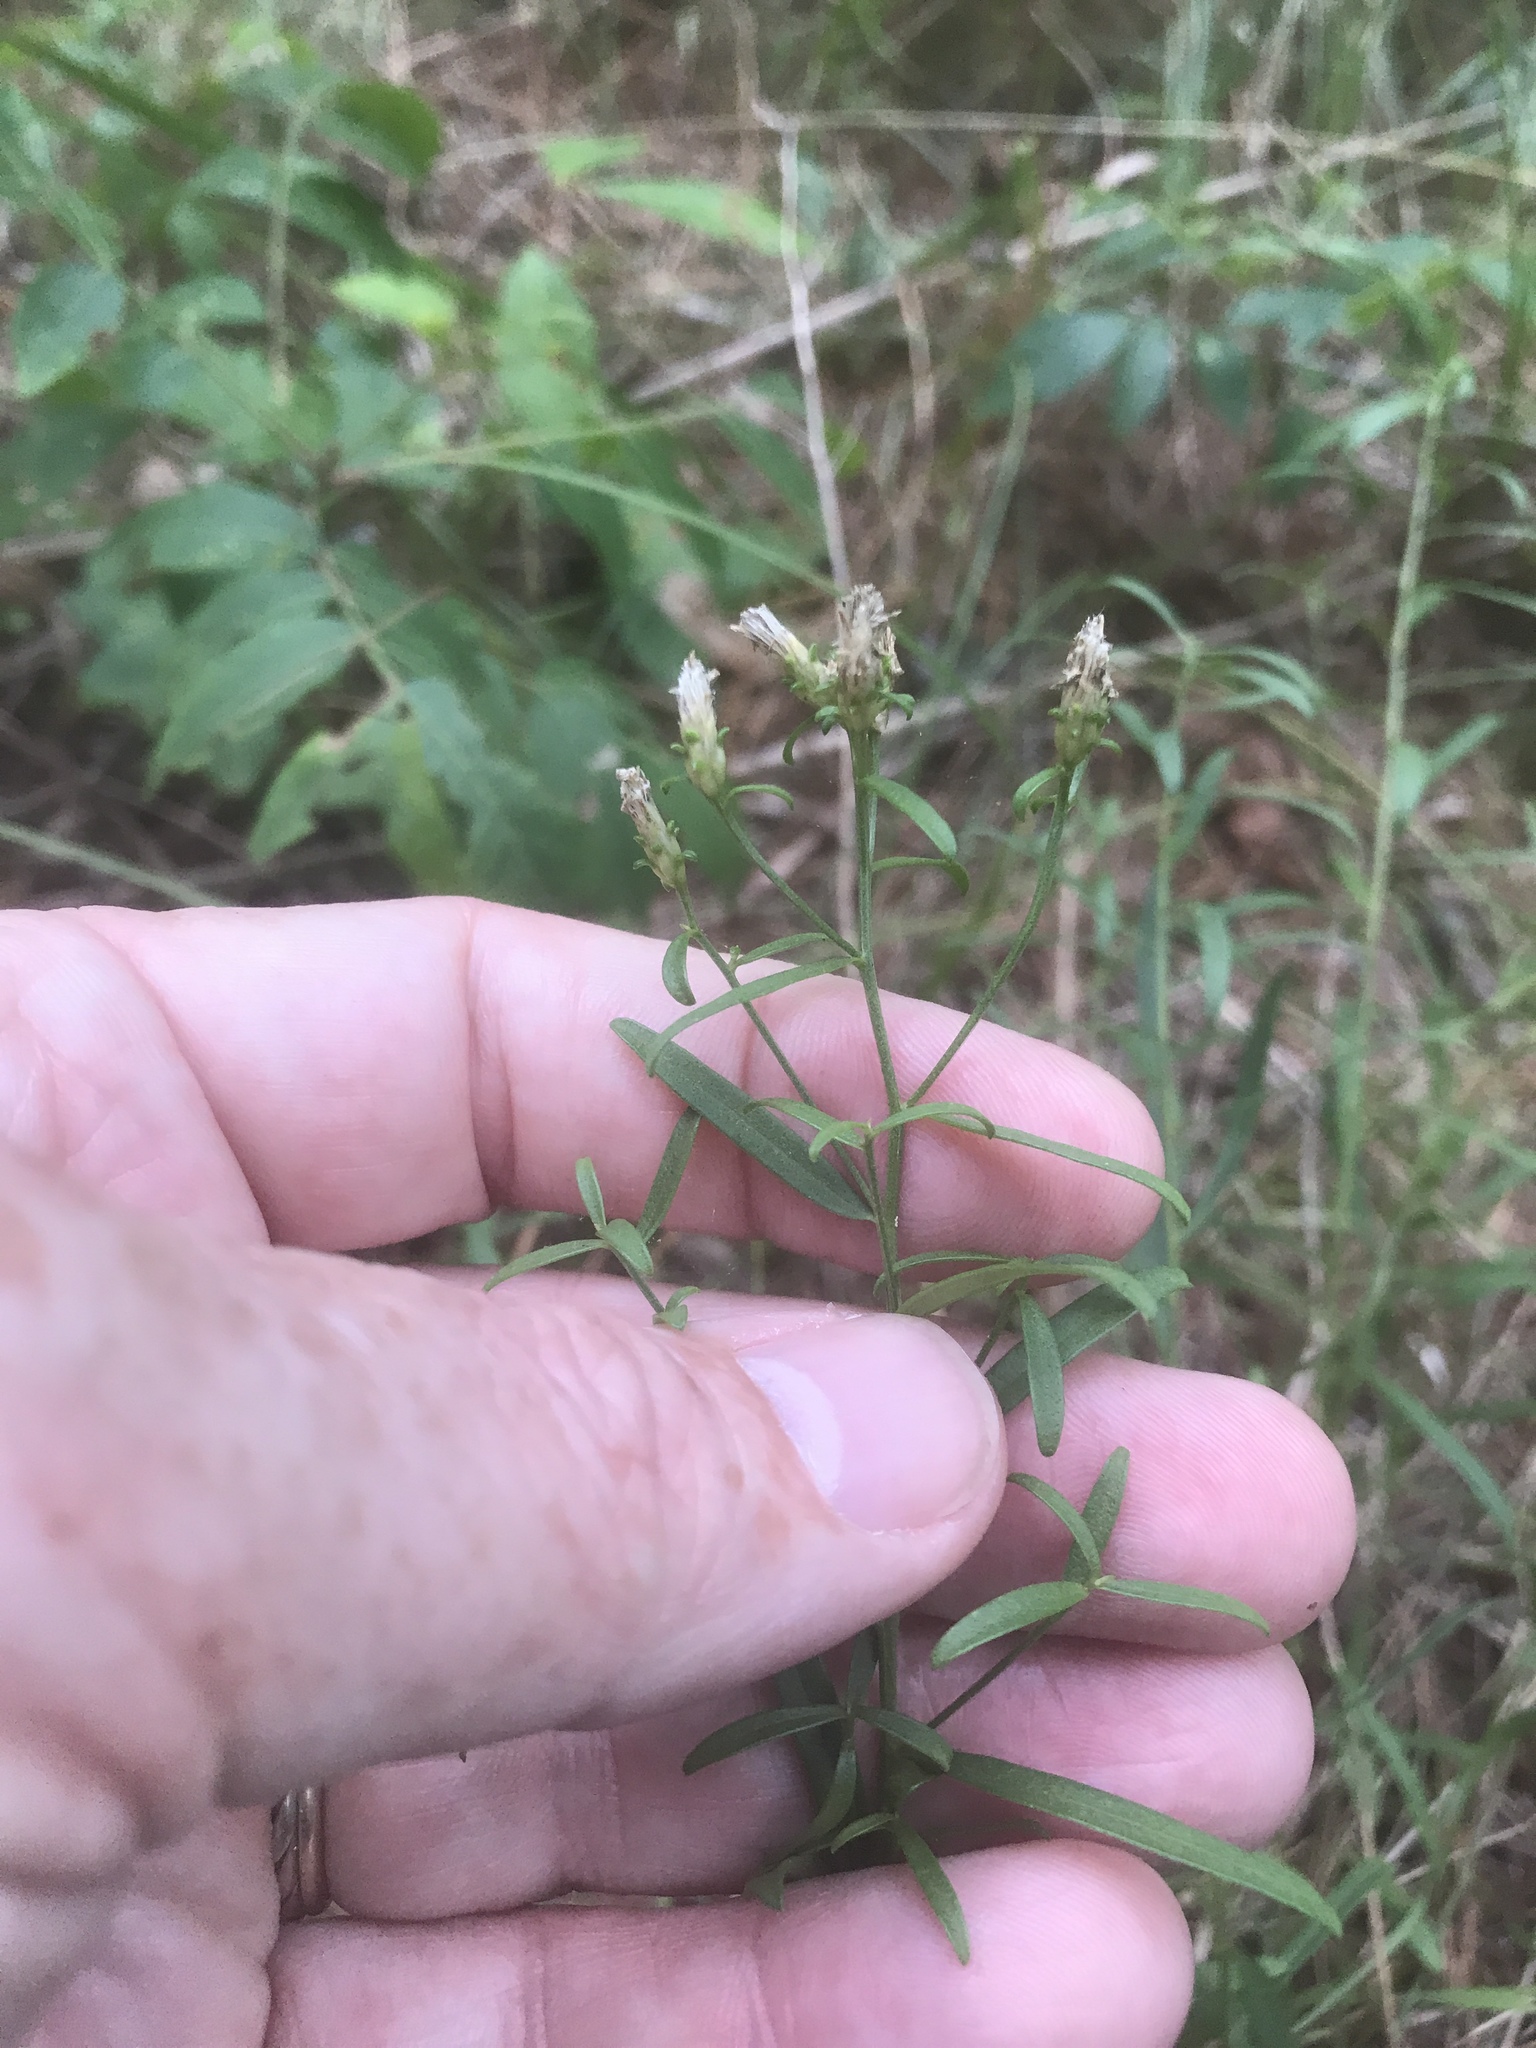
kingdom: Plantae
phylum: Tracheophyta
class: Magnoliopsida
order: Asterales
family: Asteraceae
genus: Sericocarpus
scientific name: Sericocarpus linifolius
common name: Narrow-leaf aster
